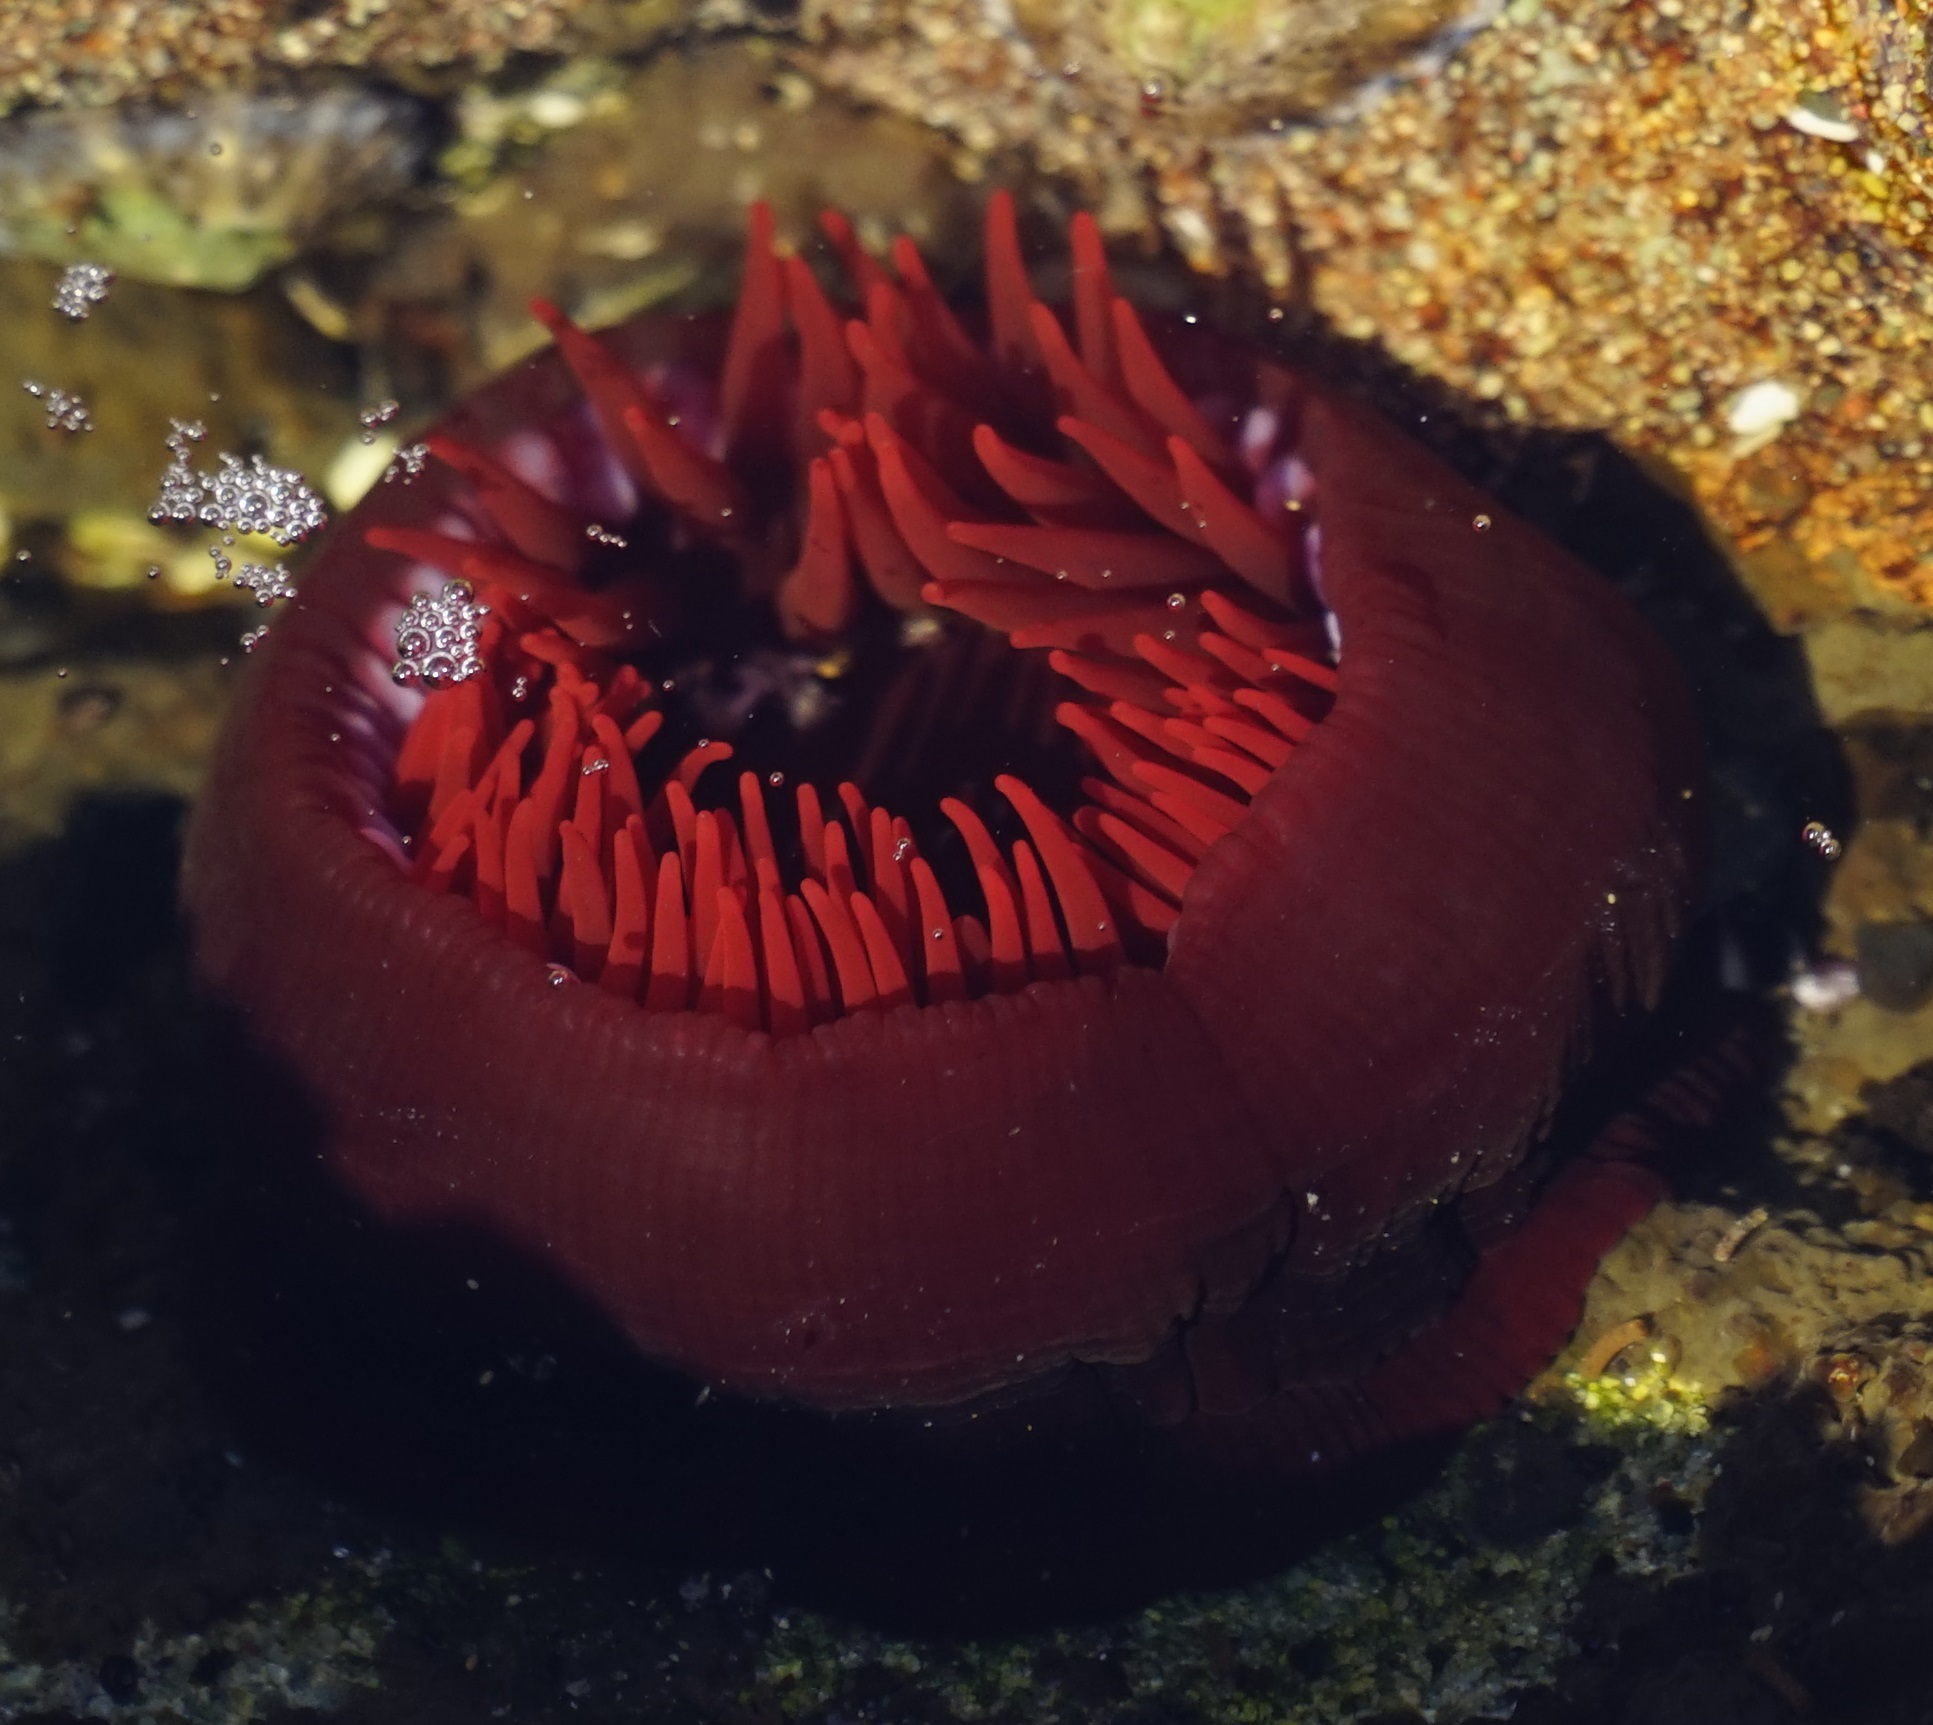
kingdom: Animalia
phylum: Cnidaria
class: Anthozoa
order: Actiniaria
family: Actiniidae
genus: Actinia
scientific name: Actinia tenebrosa
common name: Waratah anemone
